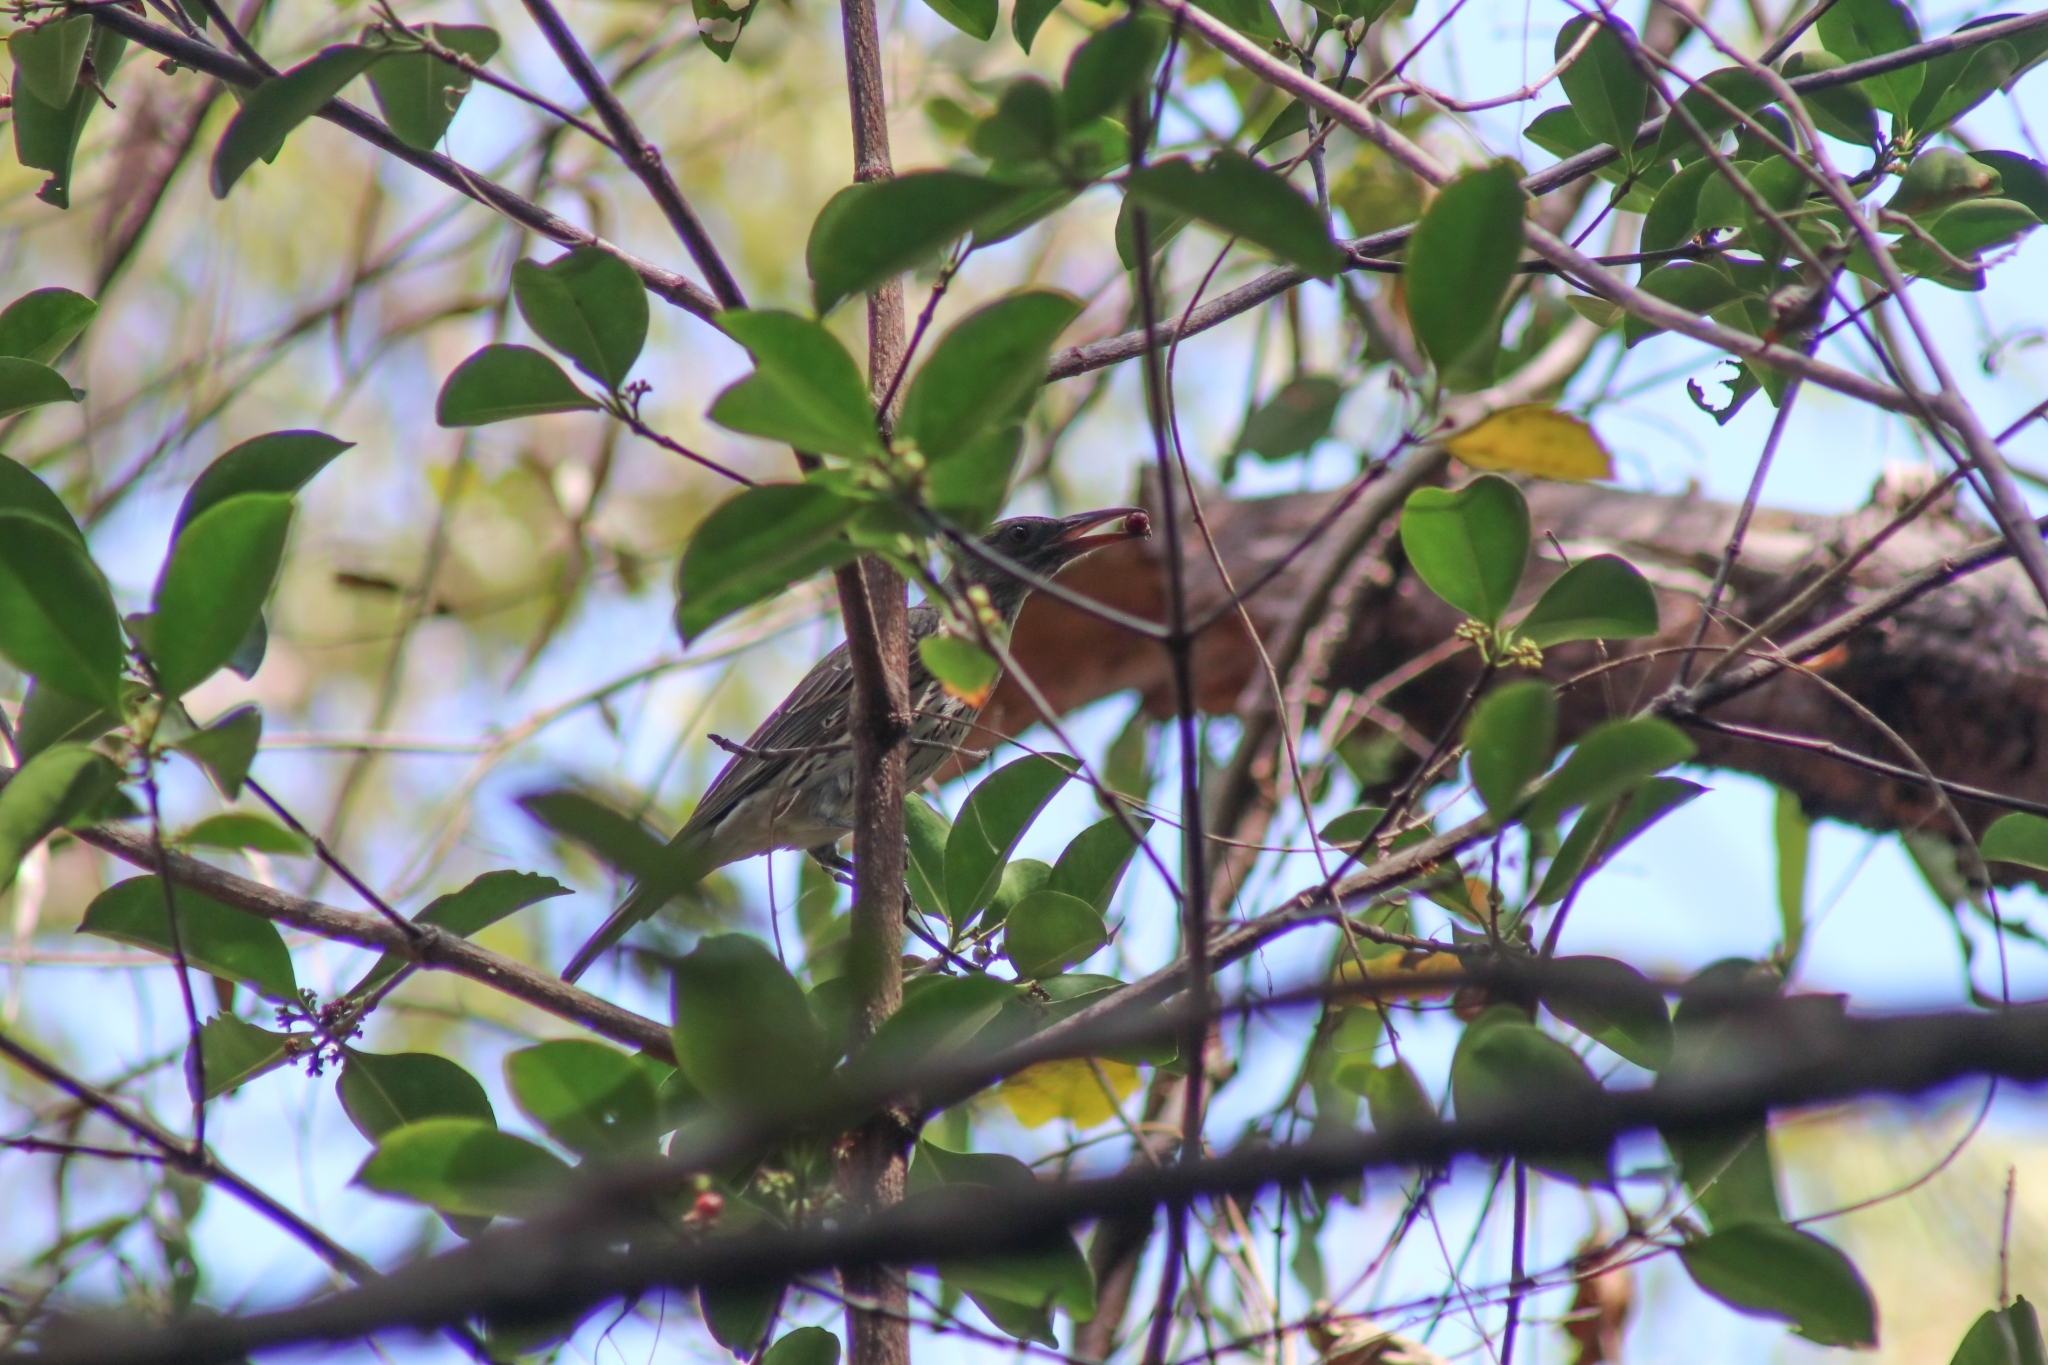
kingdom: Animalia
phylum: Chordata
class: Aves
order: Passeriformes
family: Oriolidae
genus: Oriolus
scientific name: Oriolus sagittatus
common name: Olive-backed oriole
